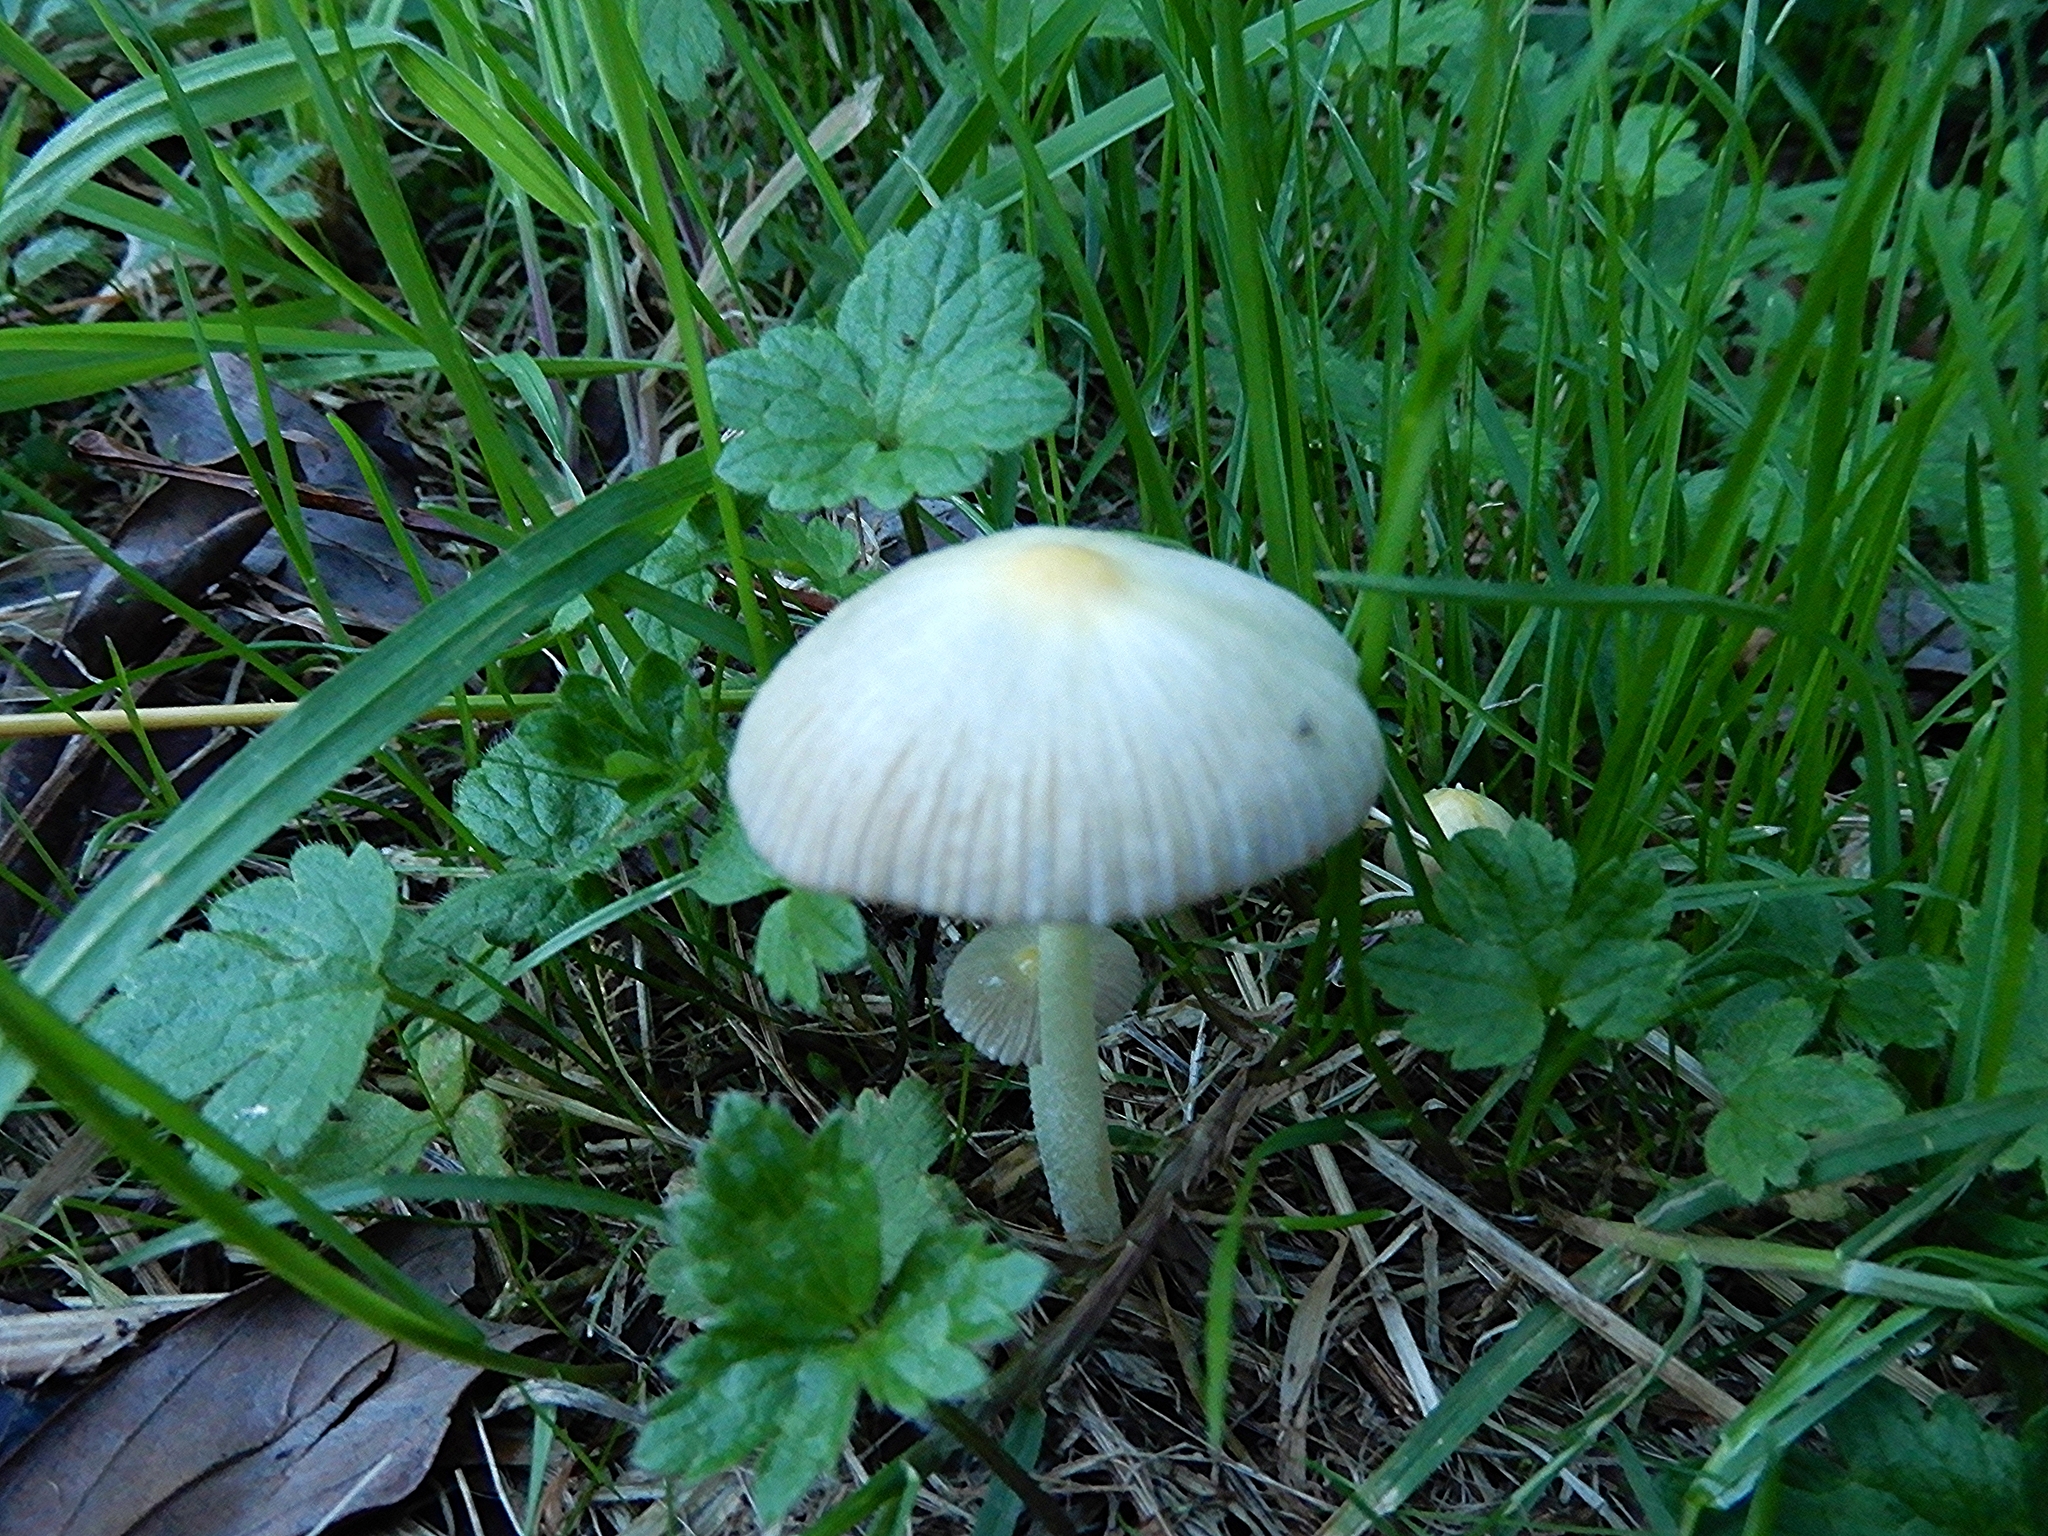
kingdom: Fungi
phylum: Basidiomycota
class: Agaricomycetes
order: Agaricales
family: Bolbitiaceae
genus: Bolbitius
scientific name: Bolbitius titubans
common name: Yellow fieldcap
